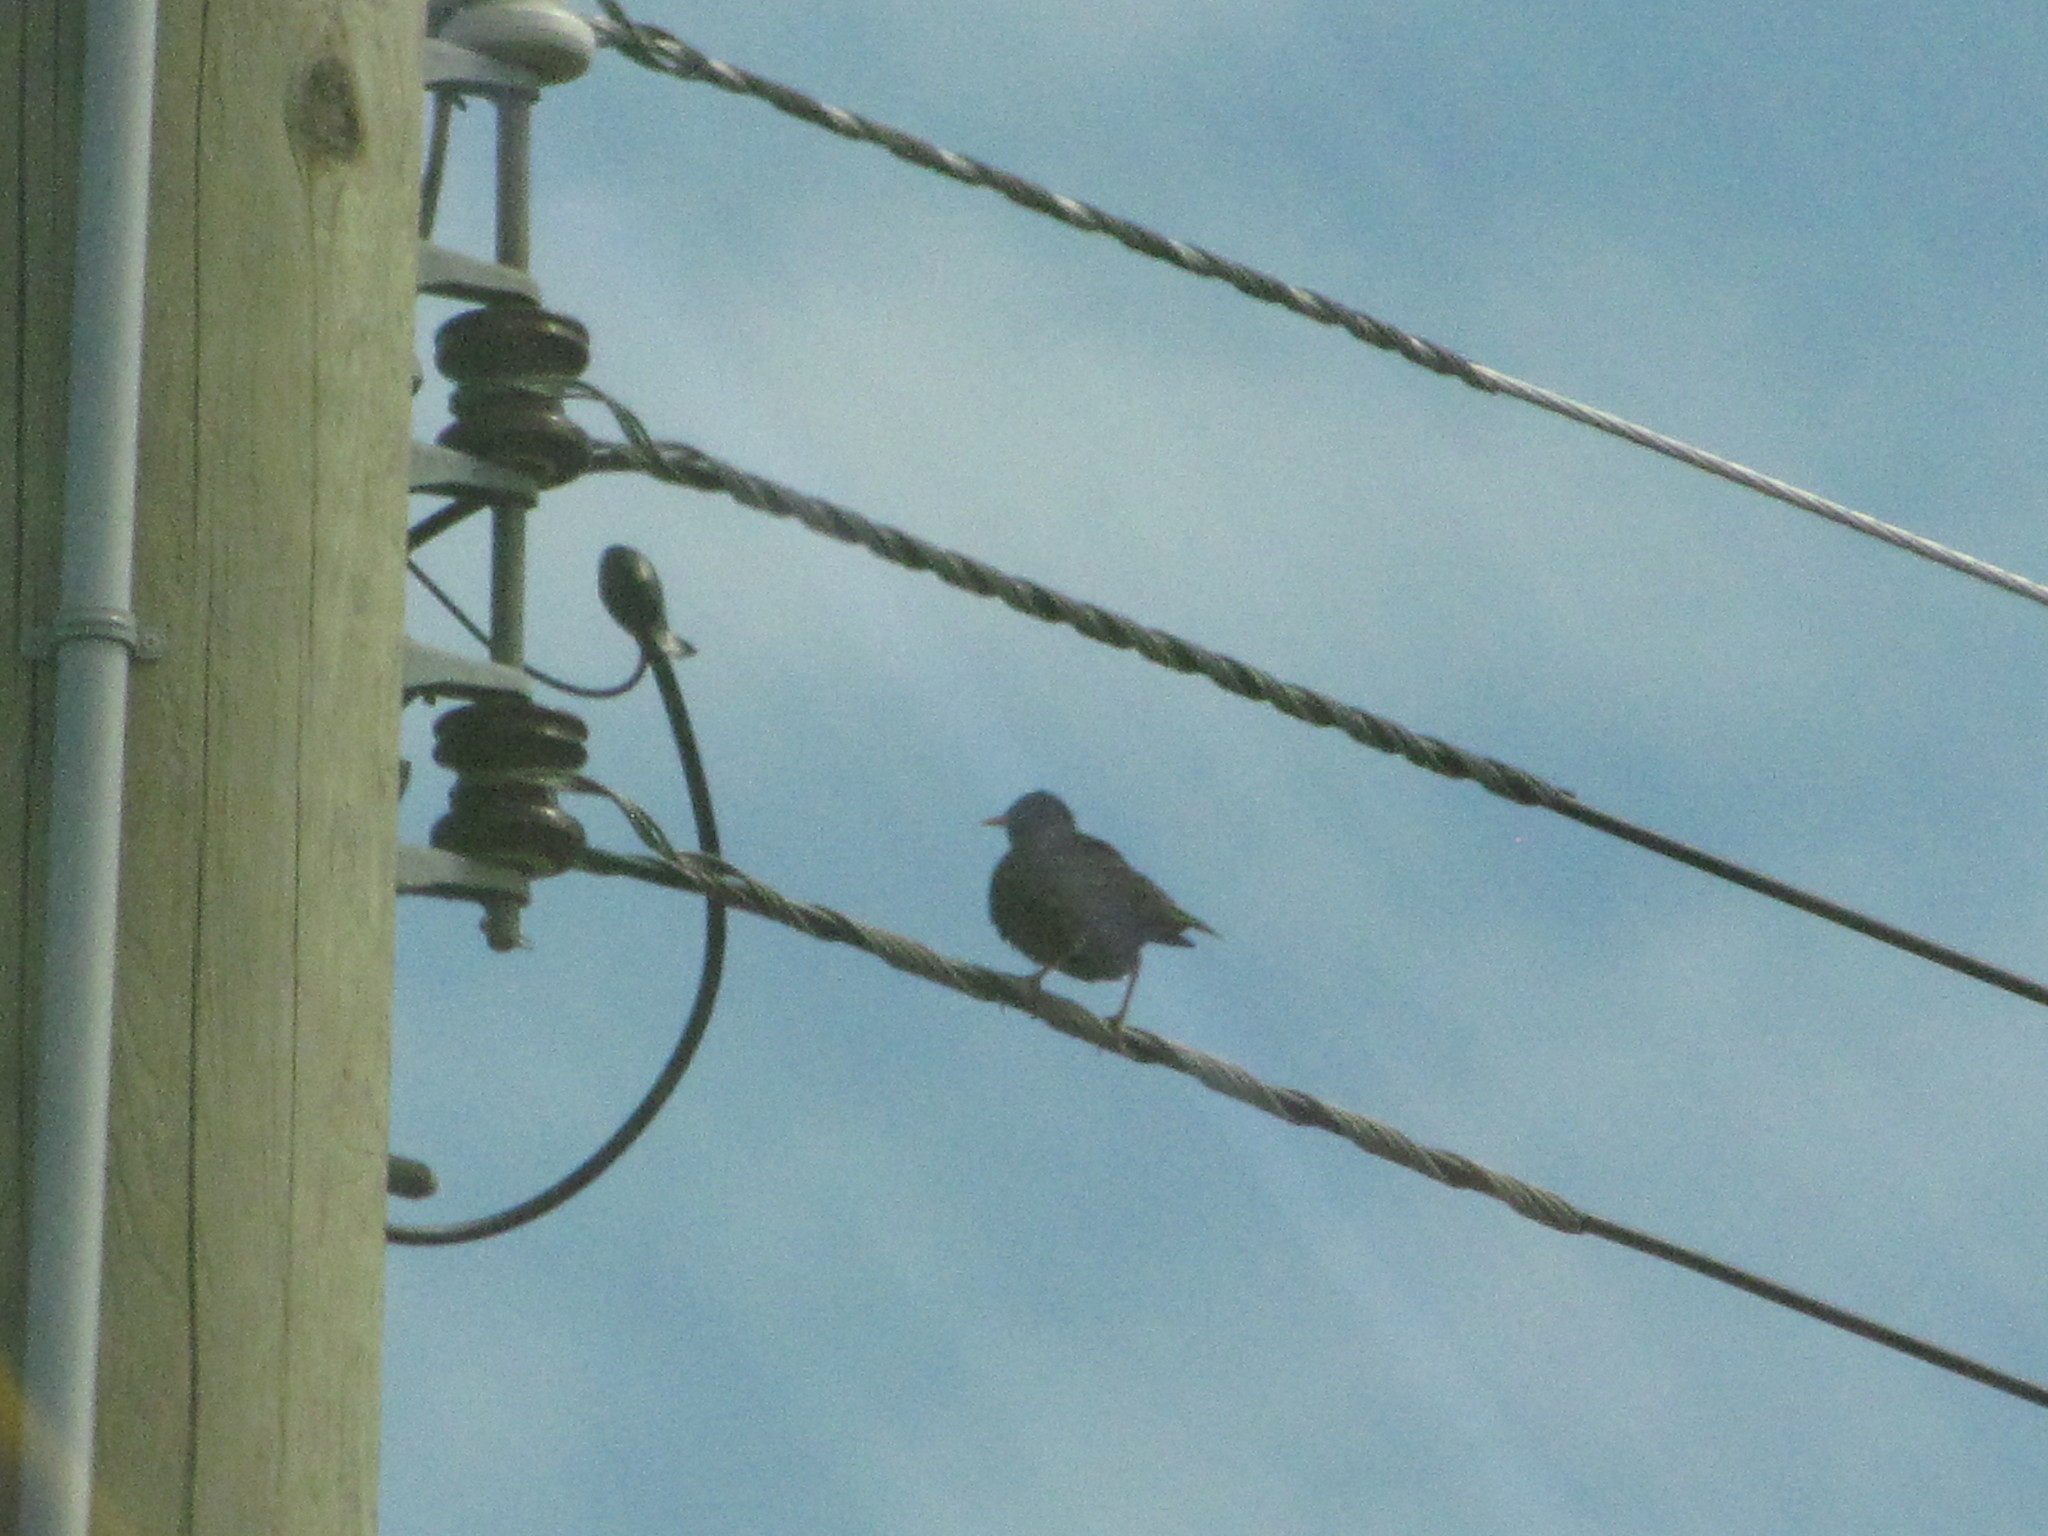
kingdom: Animalia
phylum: Chordata
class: Aves
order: Passeriformes
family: Sturnidae
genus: Sturnus
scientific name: Sturnus vulgaris
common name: Common starling
